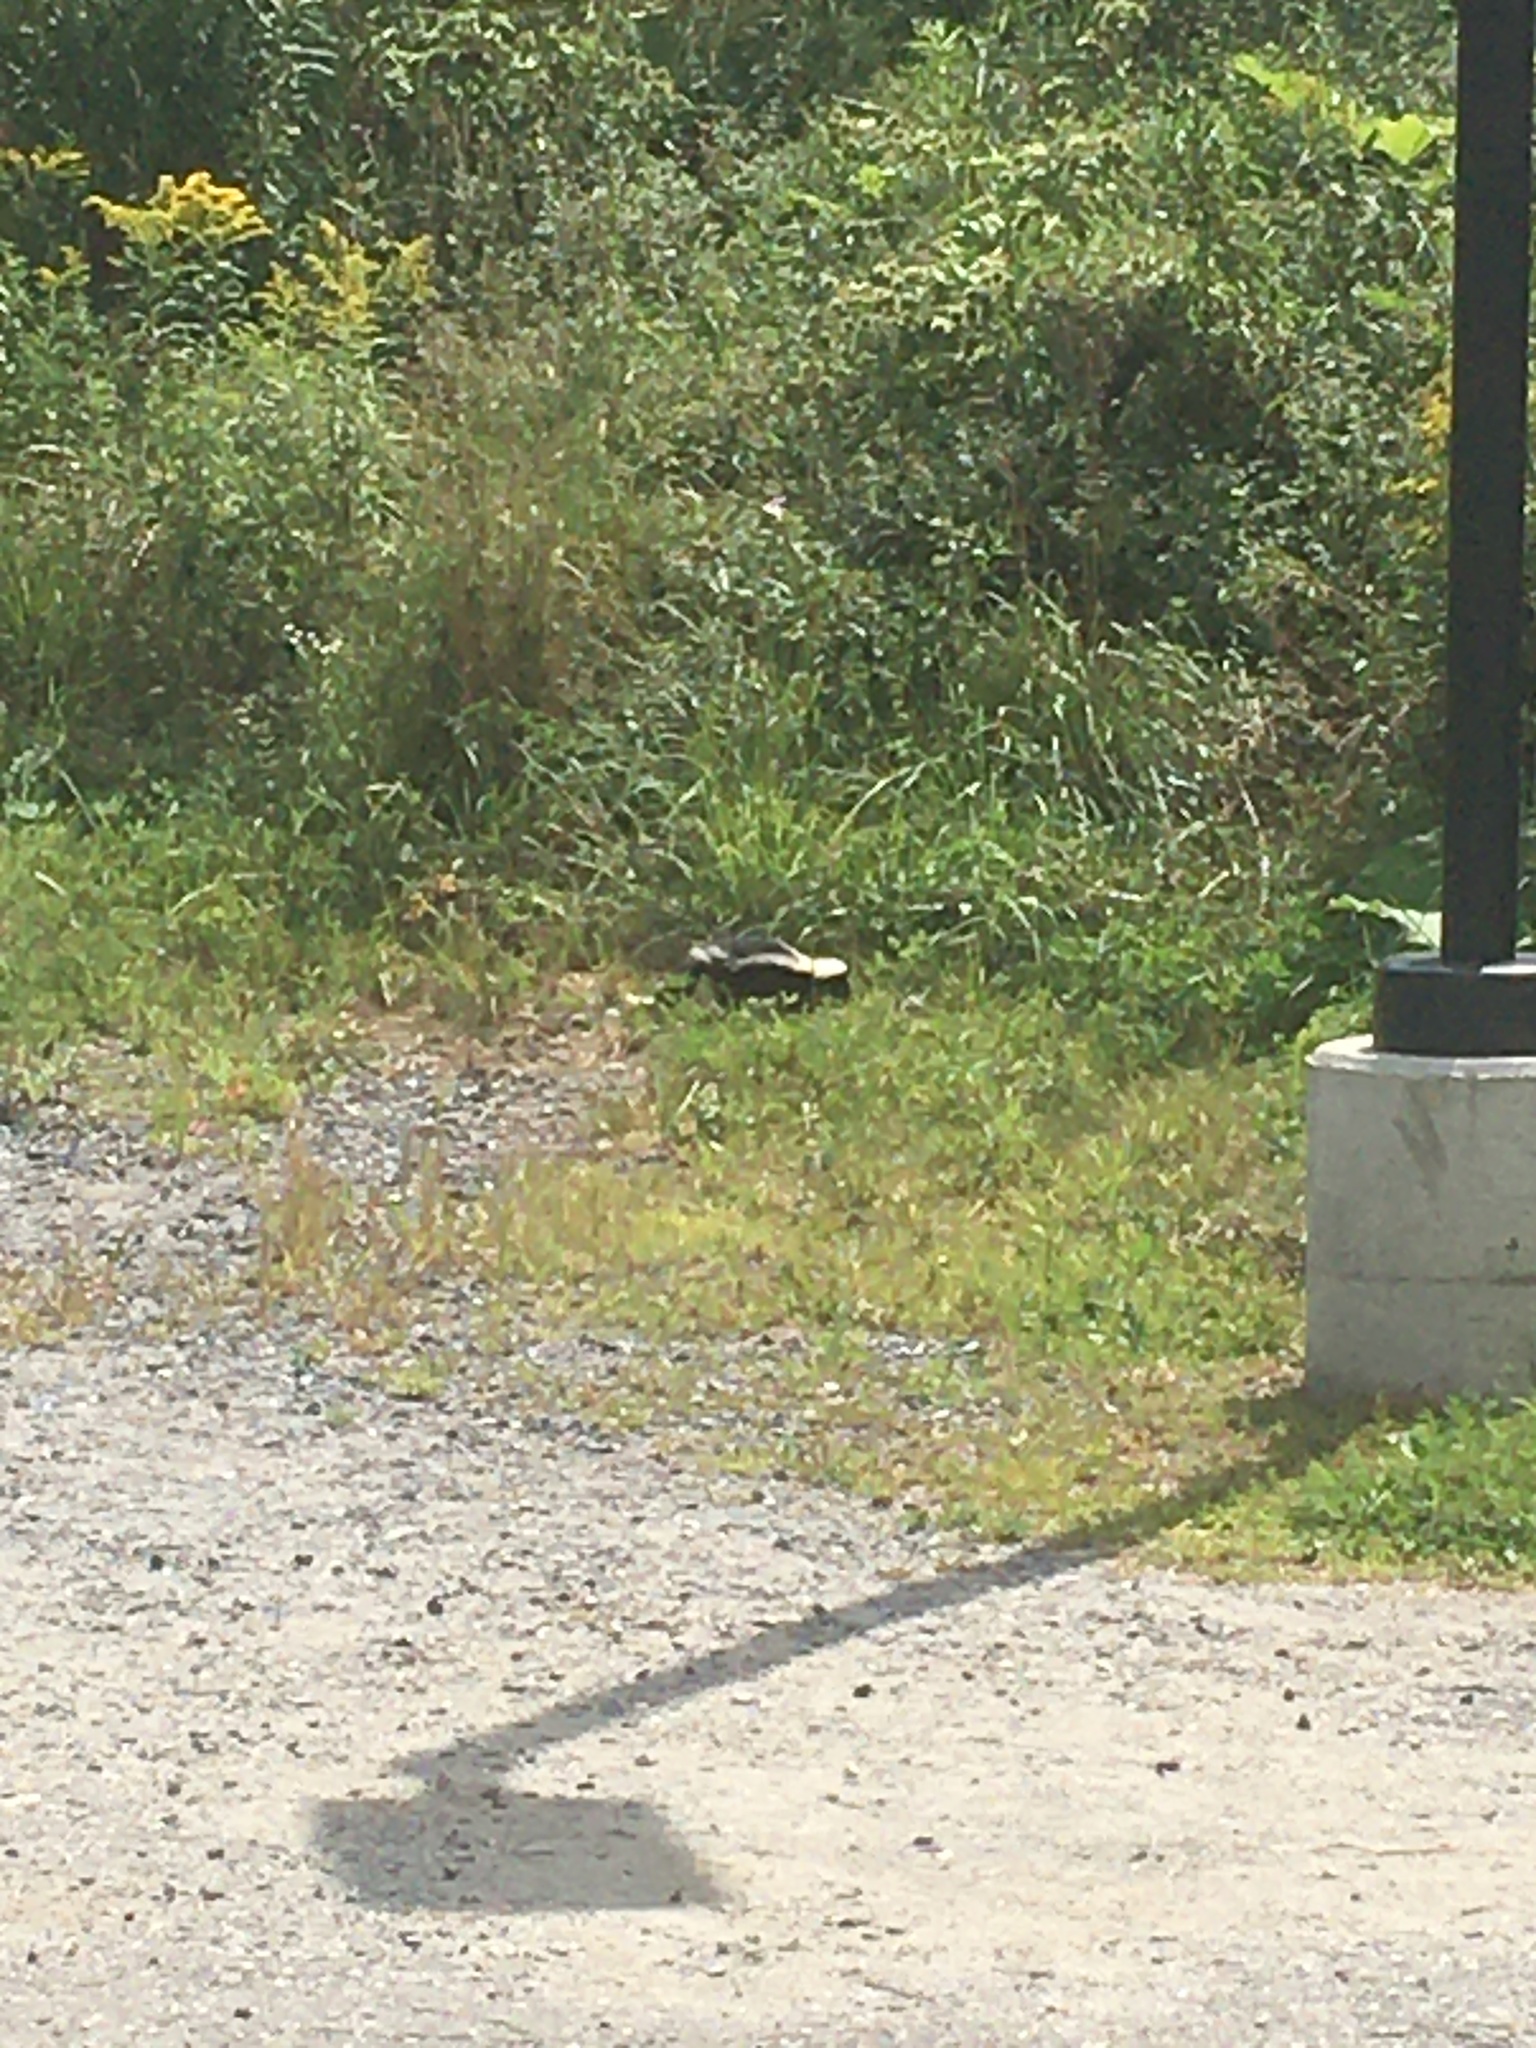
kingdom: Animalia
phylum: Chordata
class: Mammalia
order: Carnivora
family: Mephitidae
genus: Mephitis
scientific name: Mephitis mephitis
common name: Striped skunk
